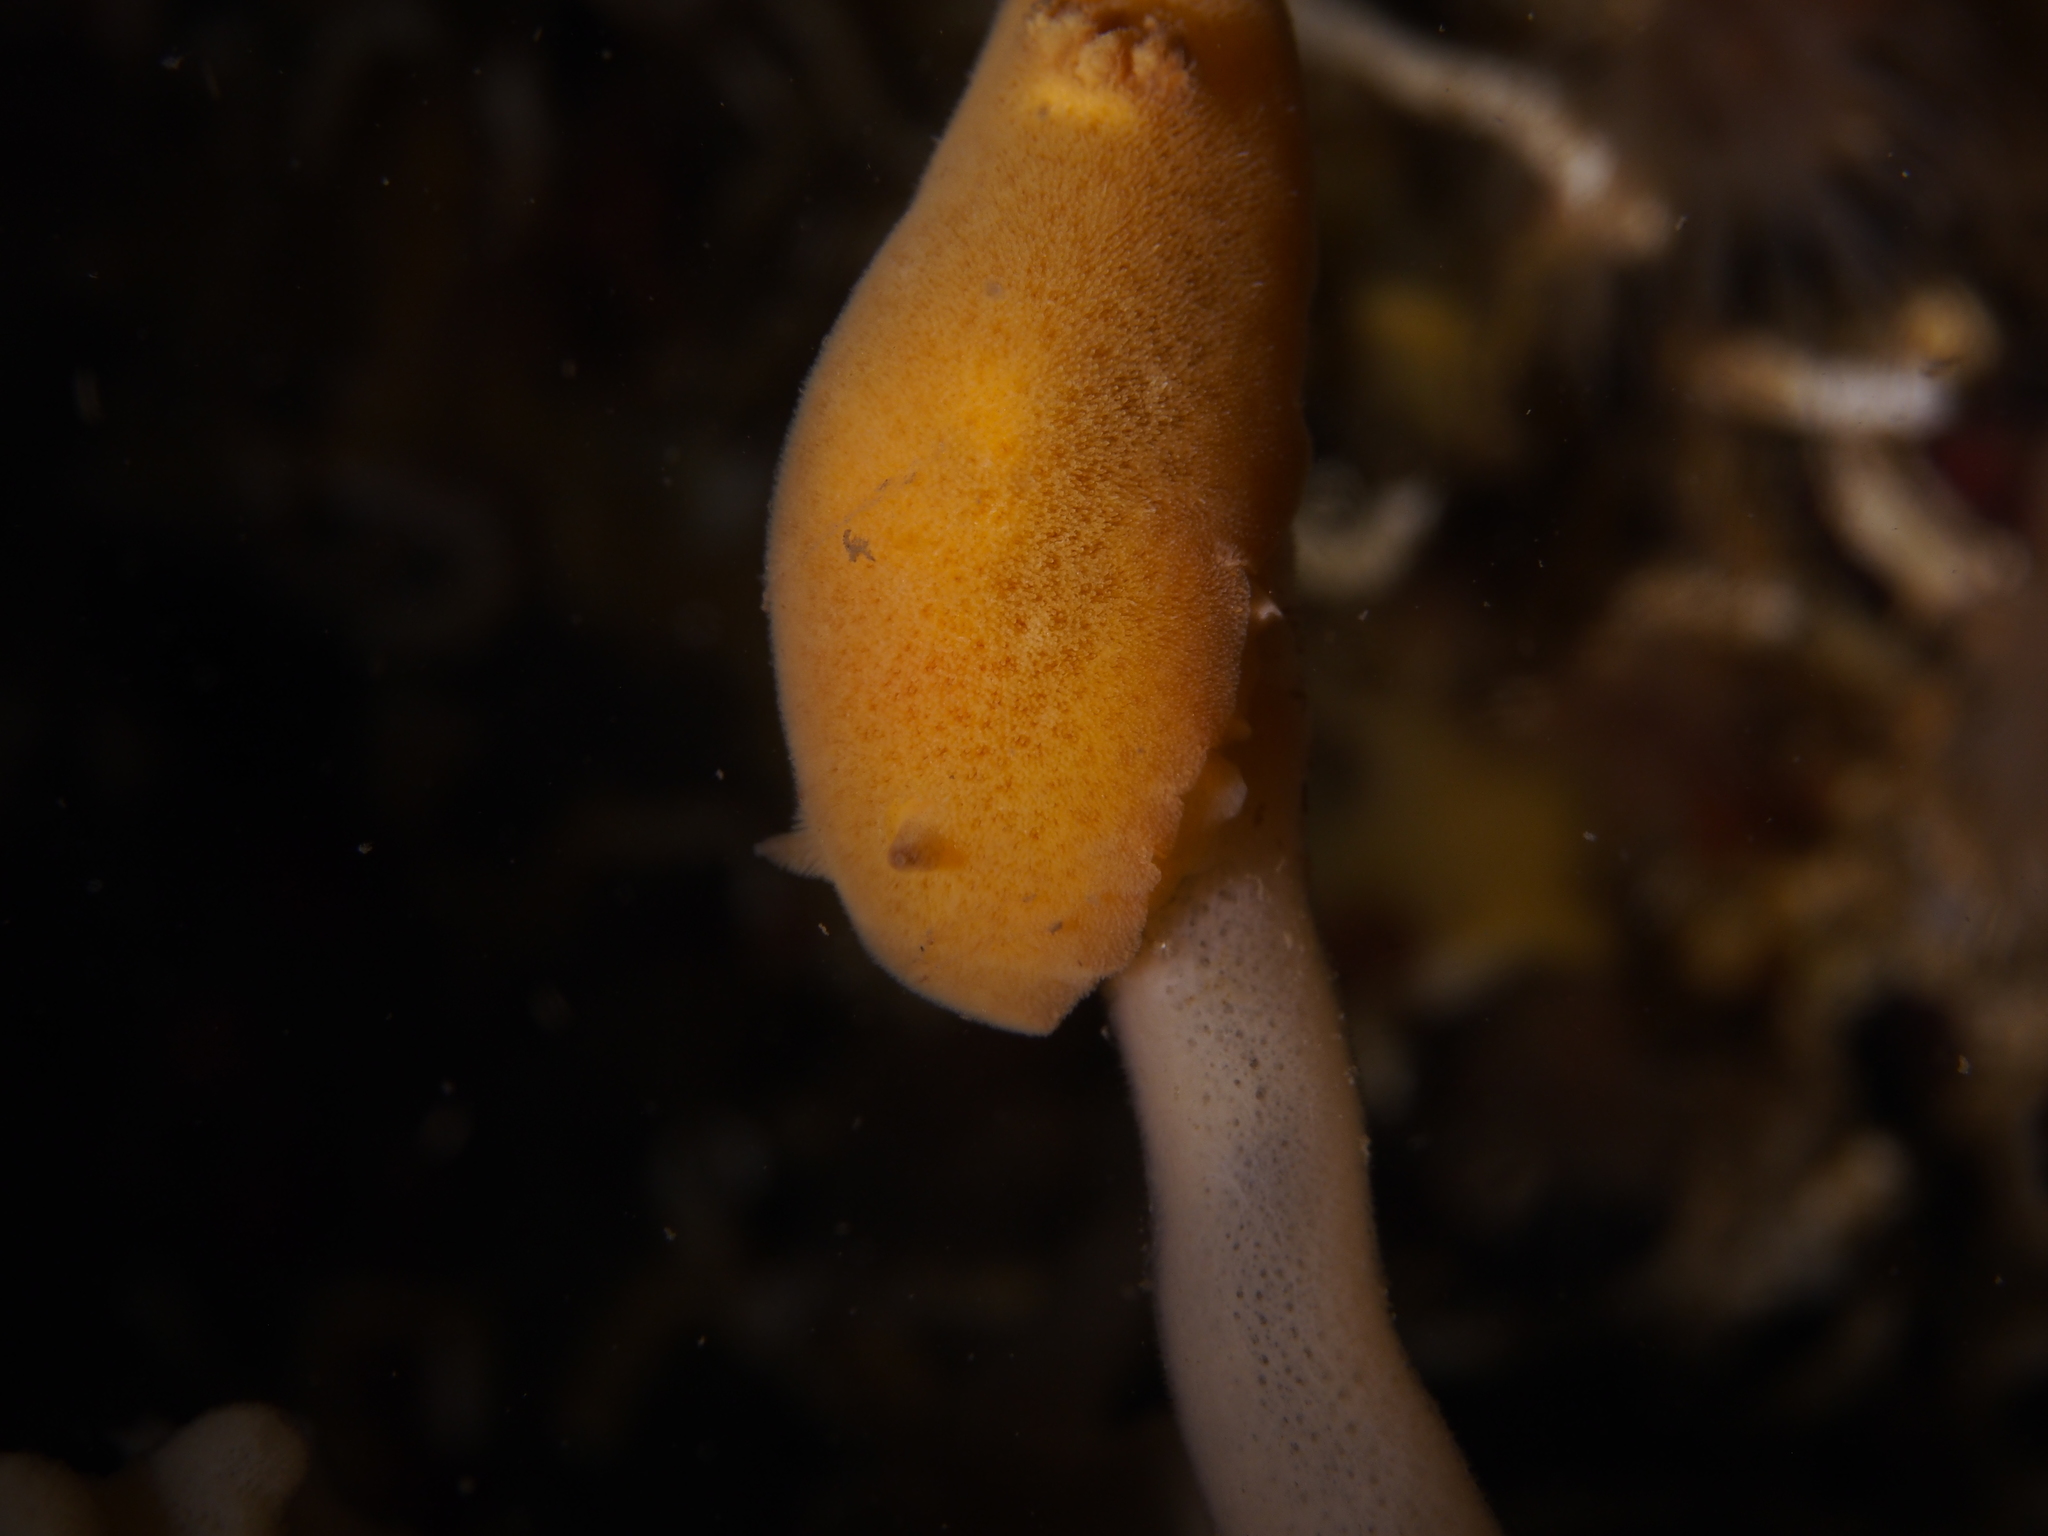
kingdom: Animalia
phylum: Mollusca
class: Gastropoda
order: Nudibranchia
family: Discodorididae
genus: Jorunna
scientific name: Jorunna tomentosa
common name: Grey sea slug
